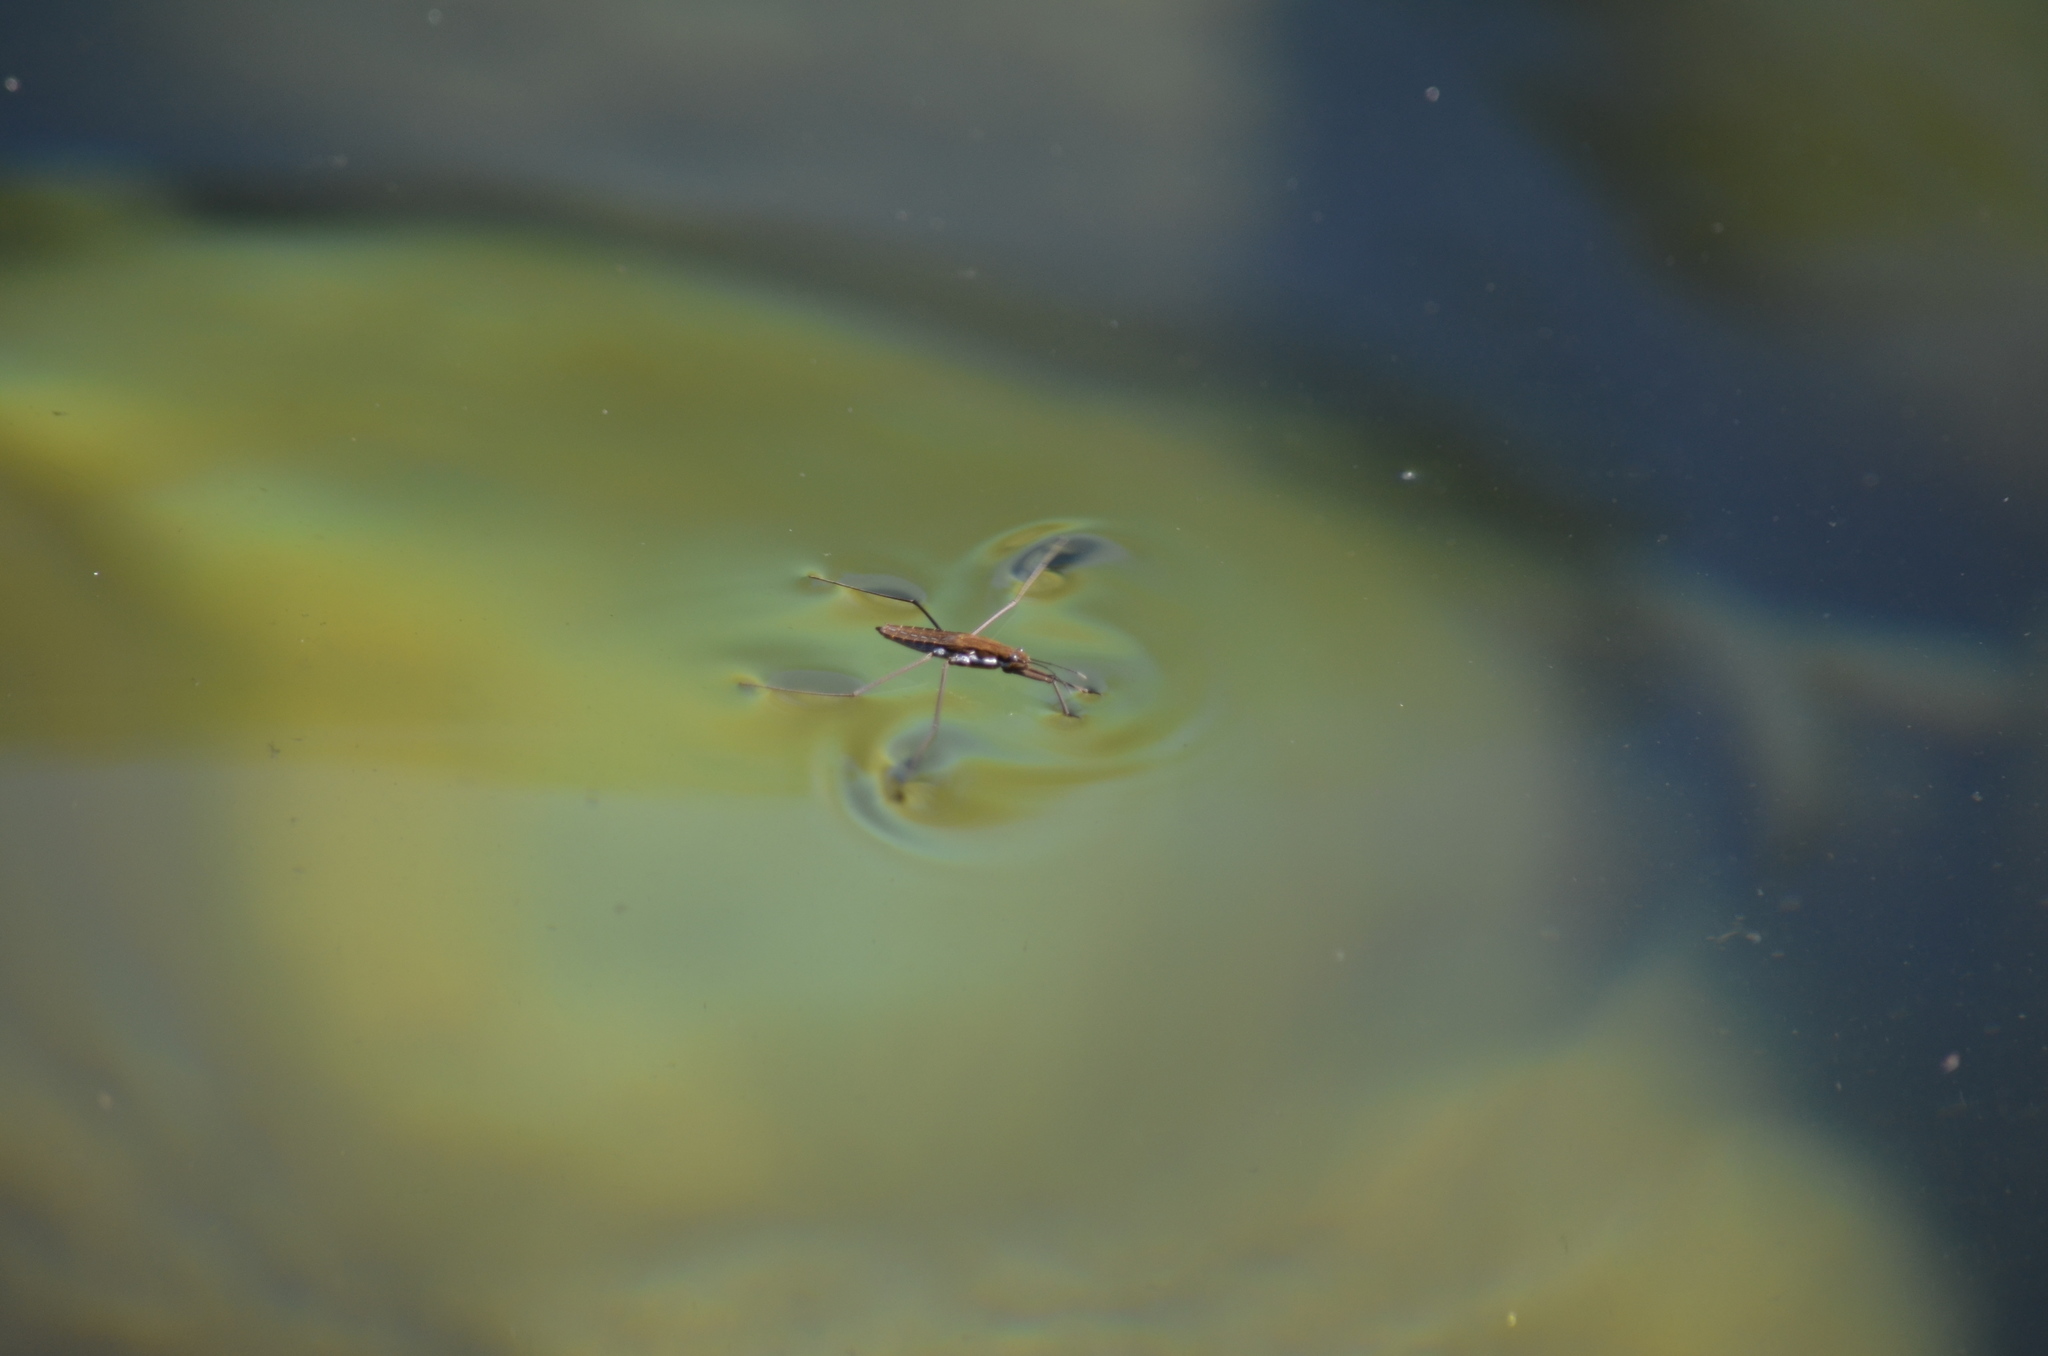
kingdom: Animalia
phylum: Arthropoda
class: Insecta
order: Hemiptera
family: Gerridae
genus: Aquarius
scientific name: Aquarius remigis
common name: Common water strider
